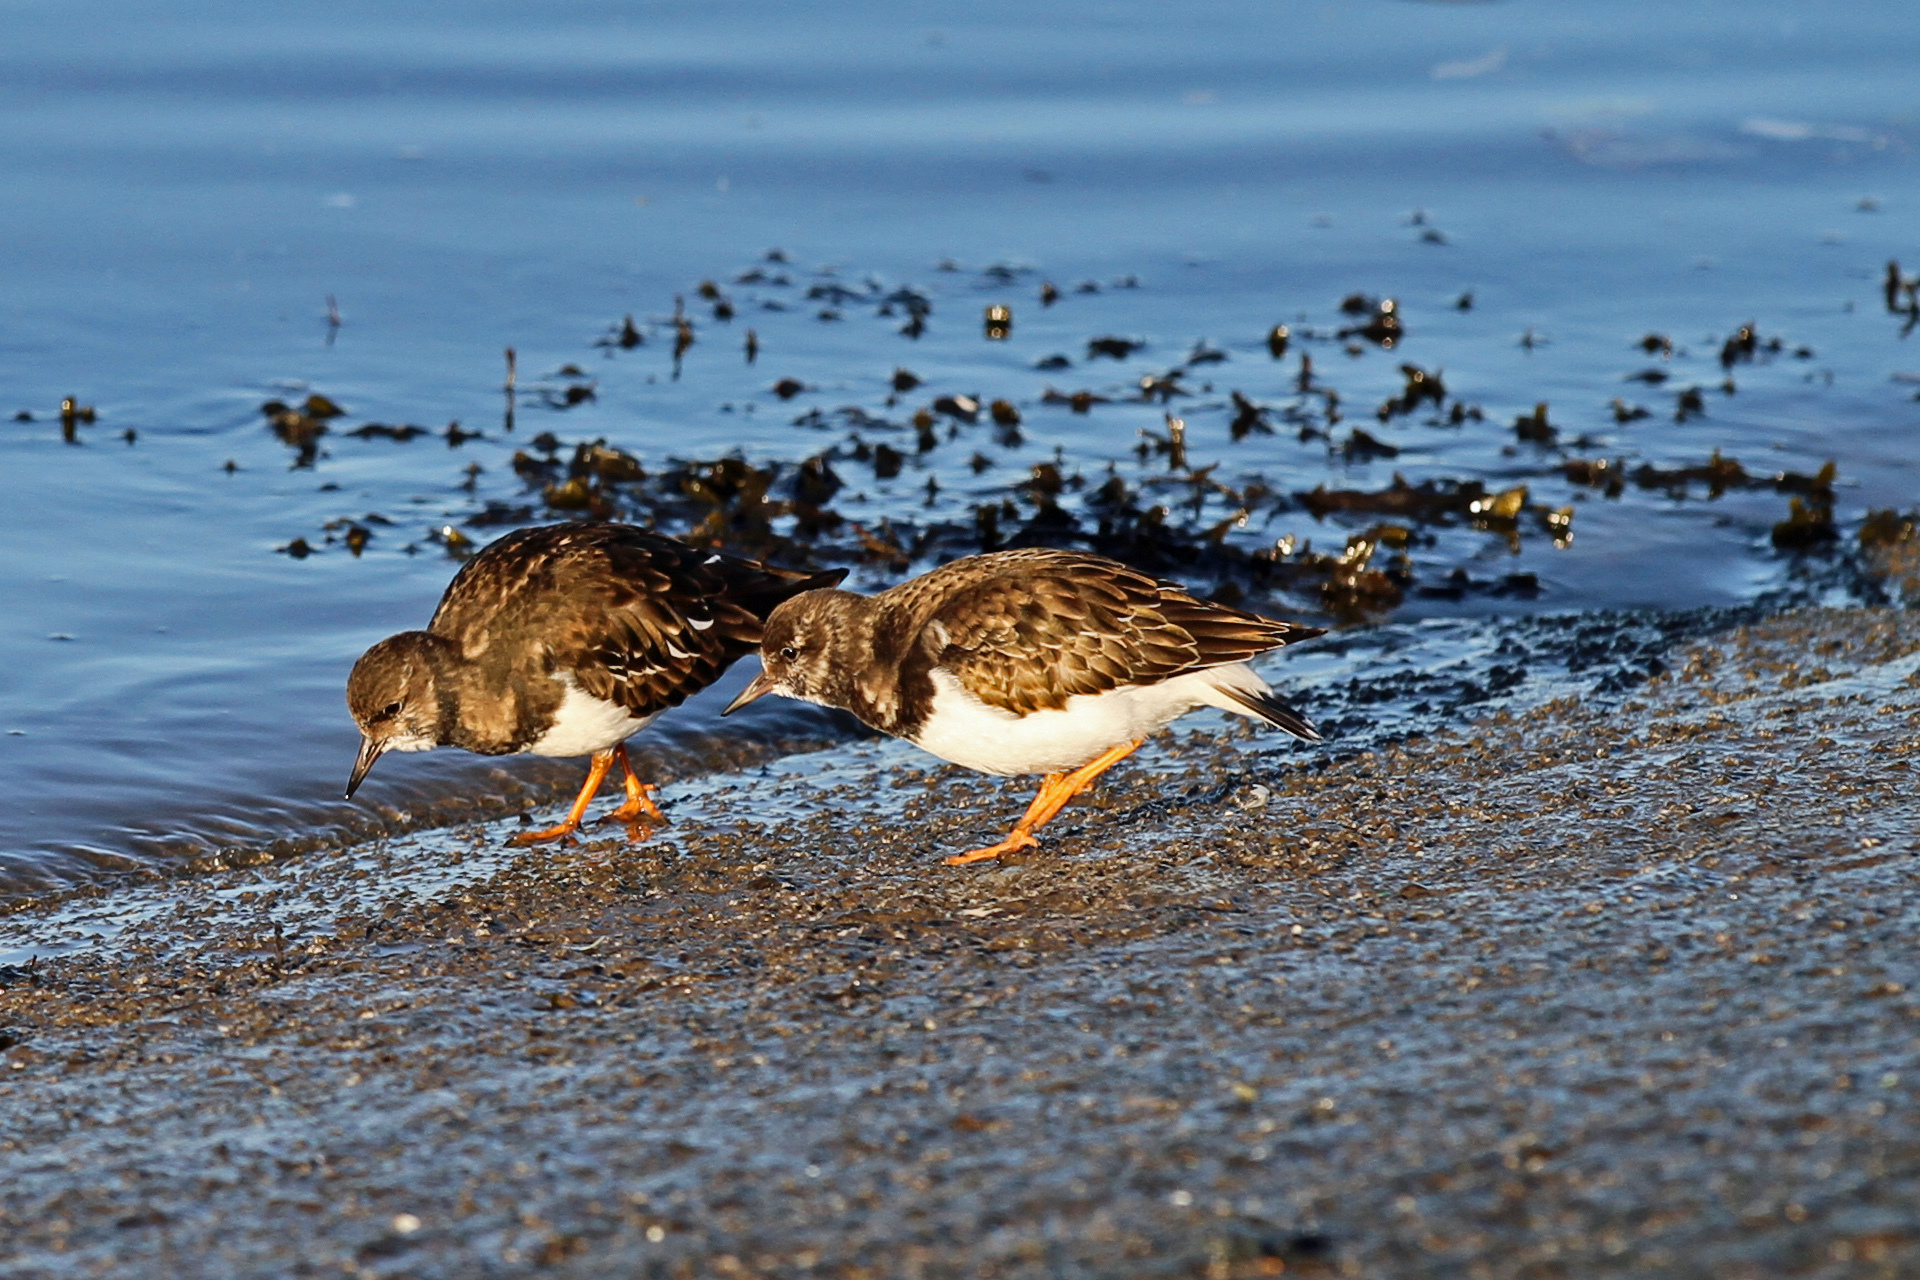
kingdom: Animalia
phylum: Chordata
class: Aves
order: Charadriiformes
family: Scolopacidae
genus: Arenaria
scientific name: Arenaria interpres
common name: Ruddy turnstone
